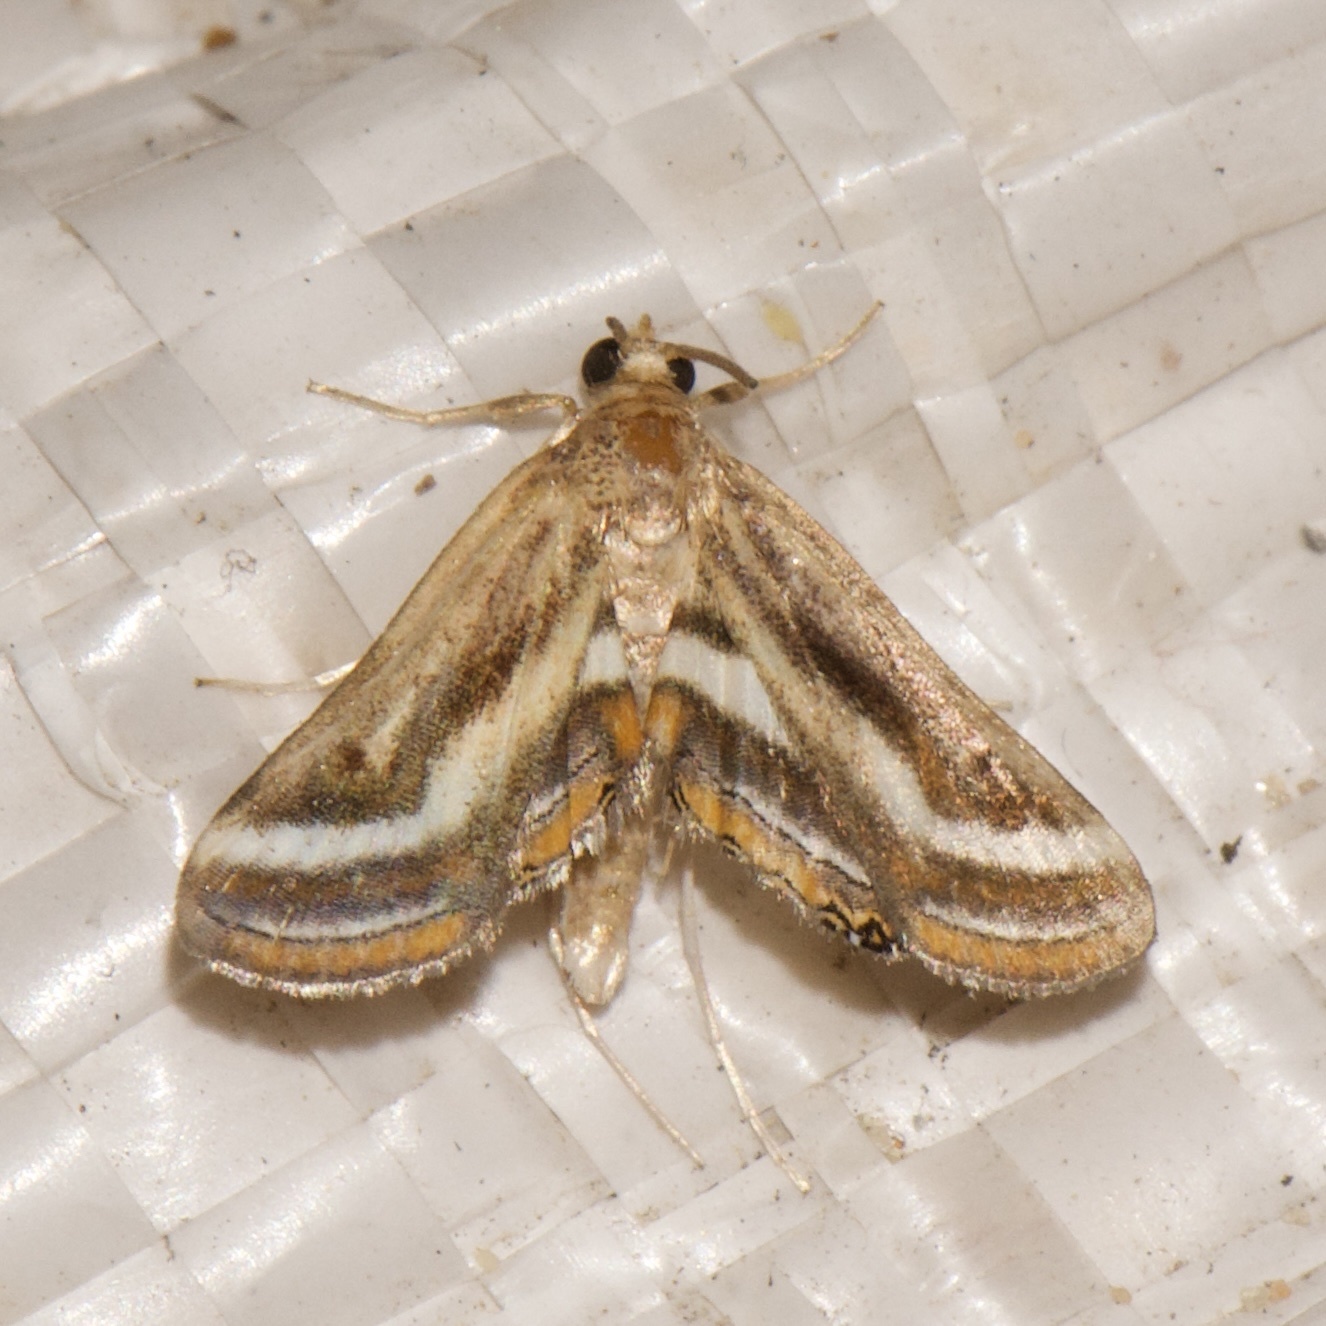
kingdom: Animalia
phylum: Arthropoda
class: Insecta
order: Lepidoptera
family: Crambidae
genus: Parapoynx
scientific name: Parapoynx seminealis
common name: Floating-heart waterlily leafcutter
